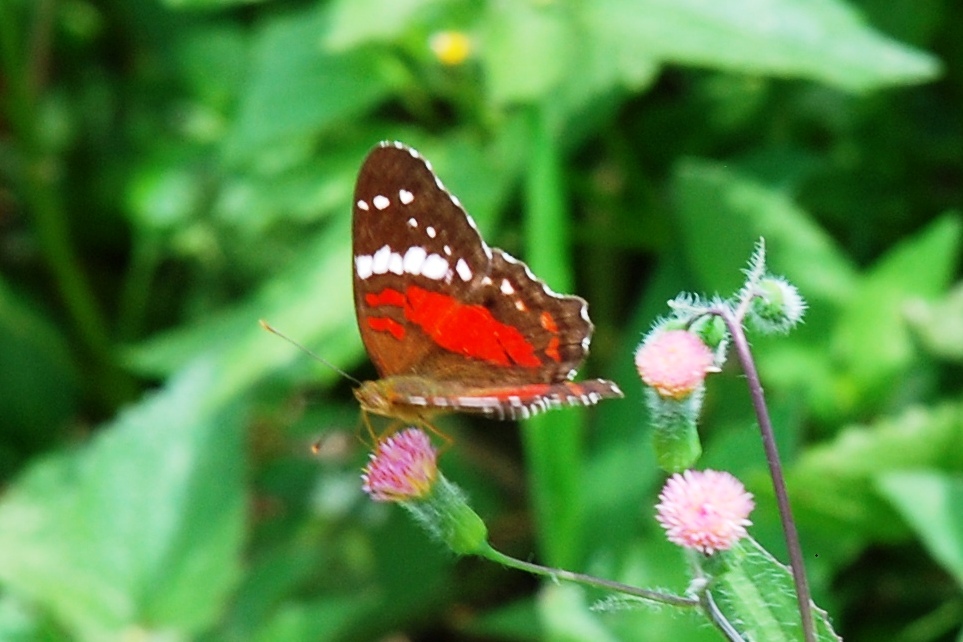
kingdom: Animalia
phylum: Arthropoda
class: Insecta
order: Lepidoptera
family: Nymphalidae
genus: Anartia
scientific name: Anartia amathea
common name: Red peacock
